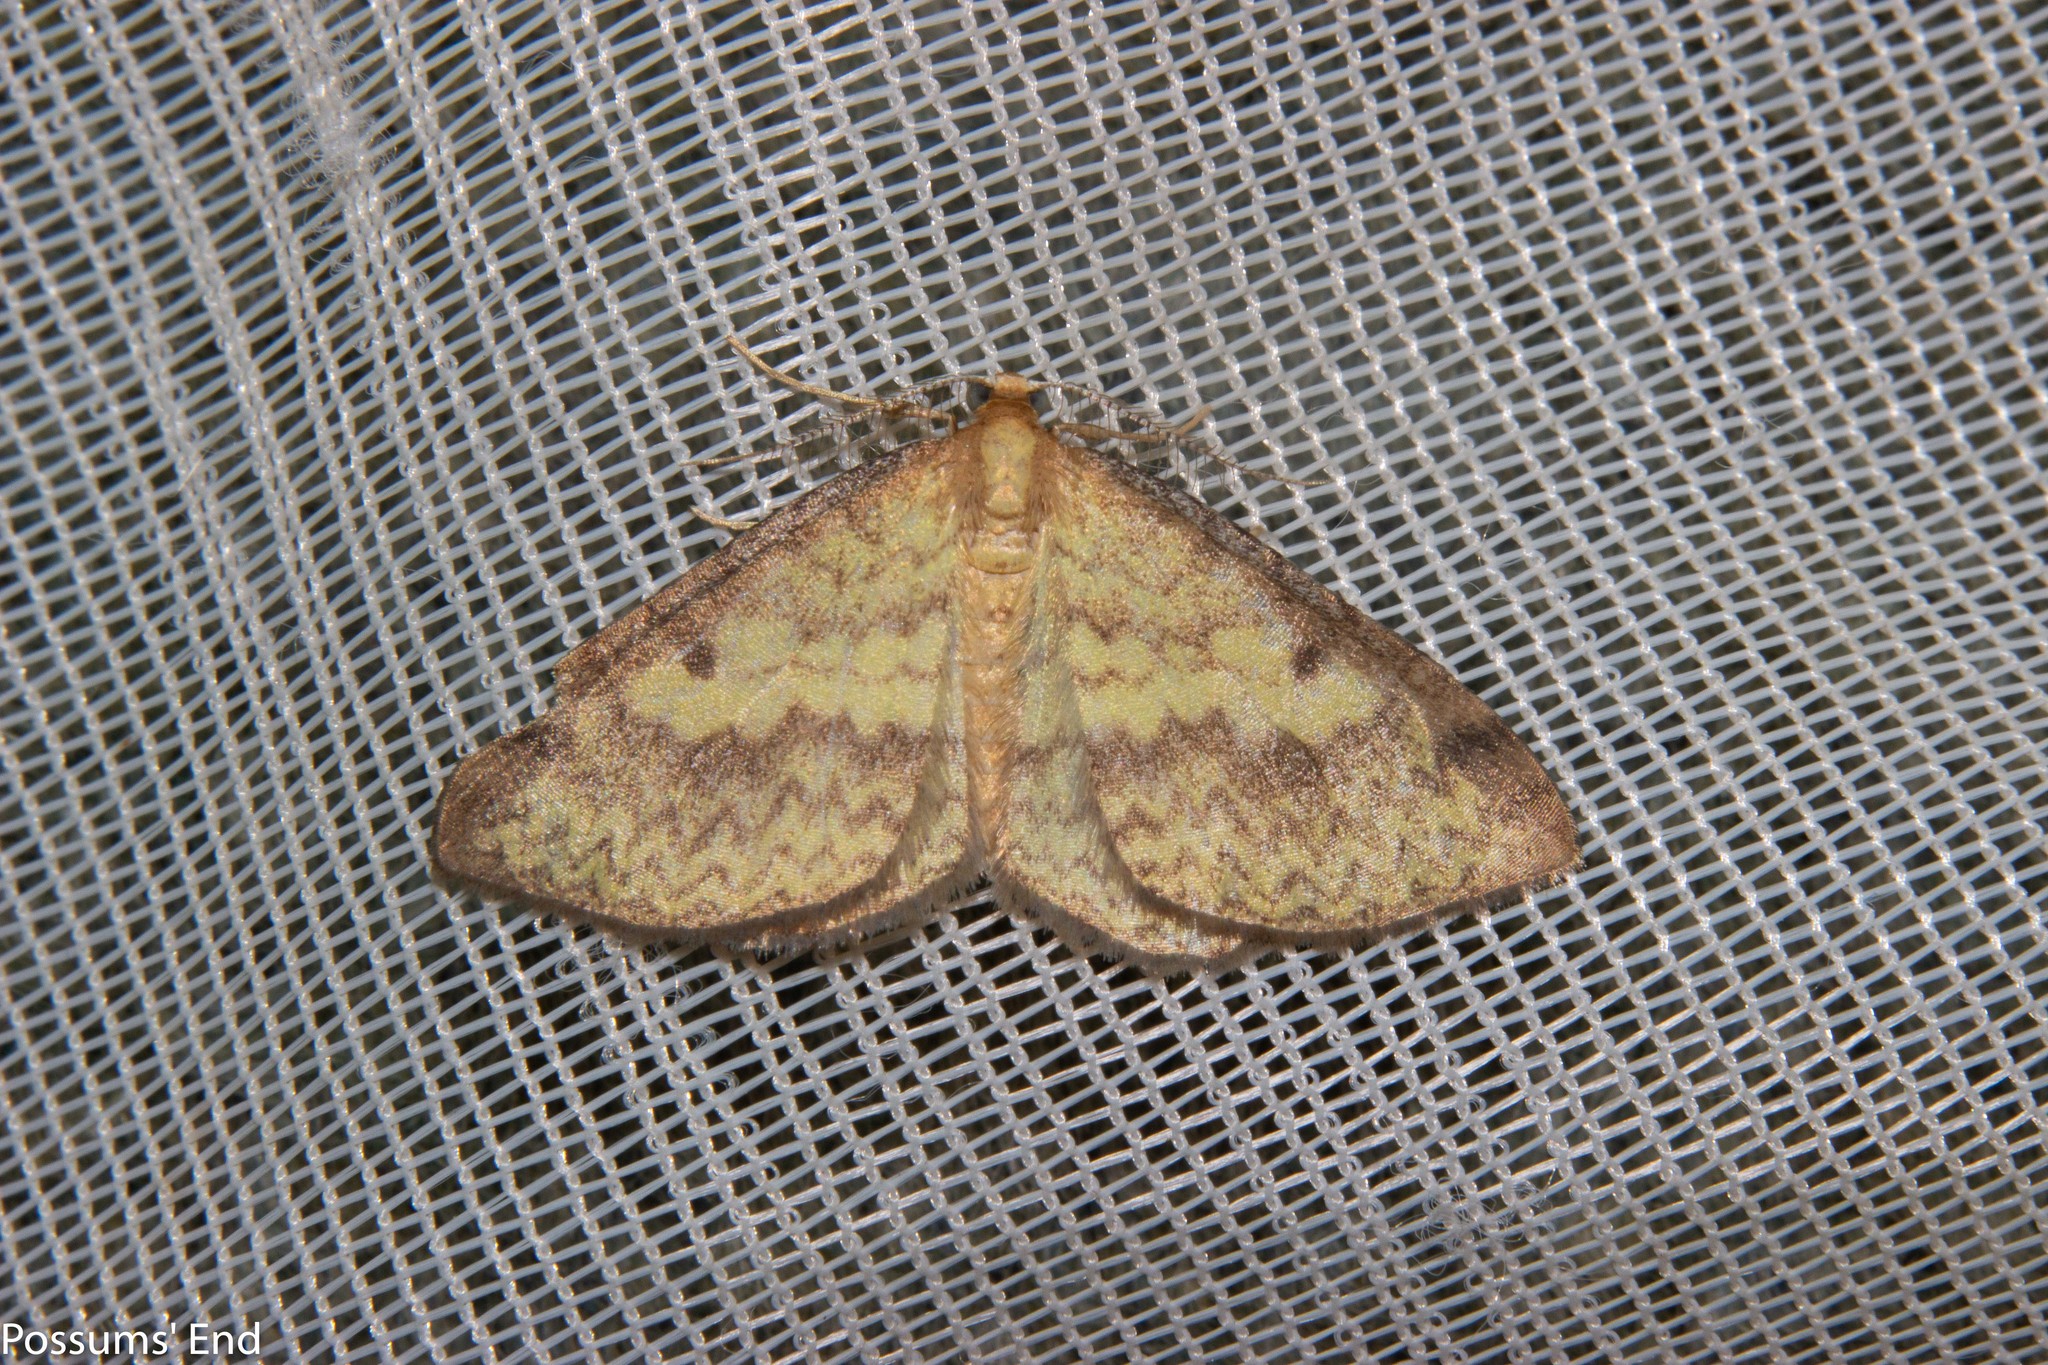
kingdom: Animalia
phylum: Arthropoda
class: Insecta
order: Lepidoptera
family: Geometridae
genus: Epiphryne
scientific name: Epiphryne undosata
